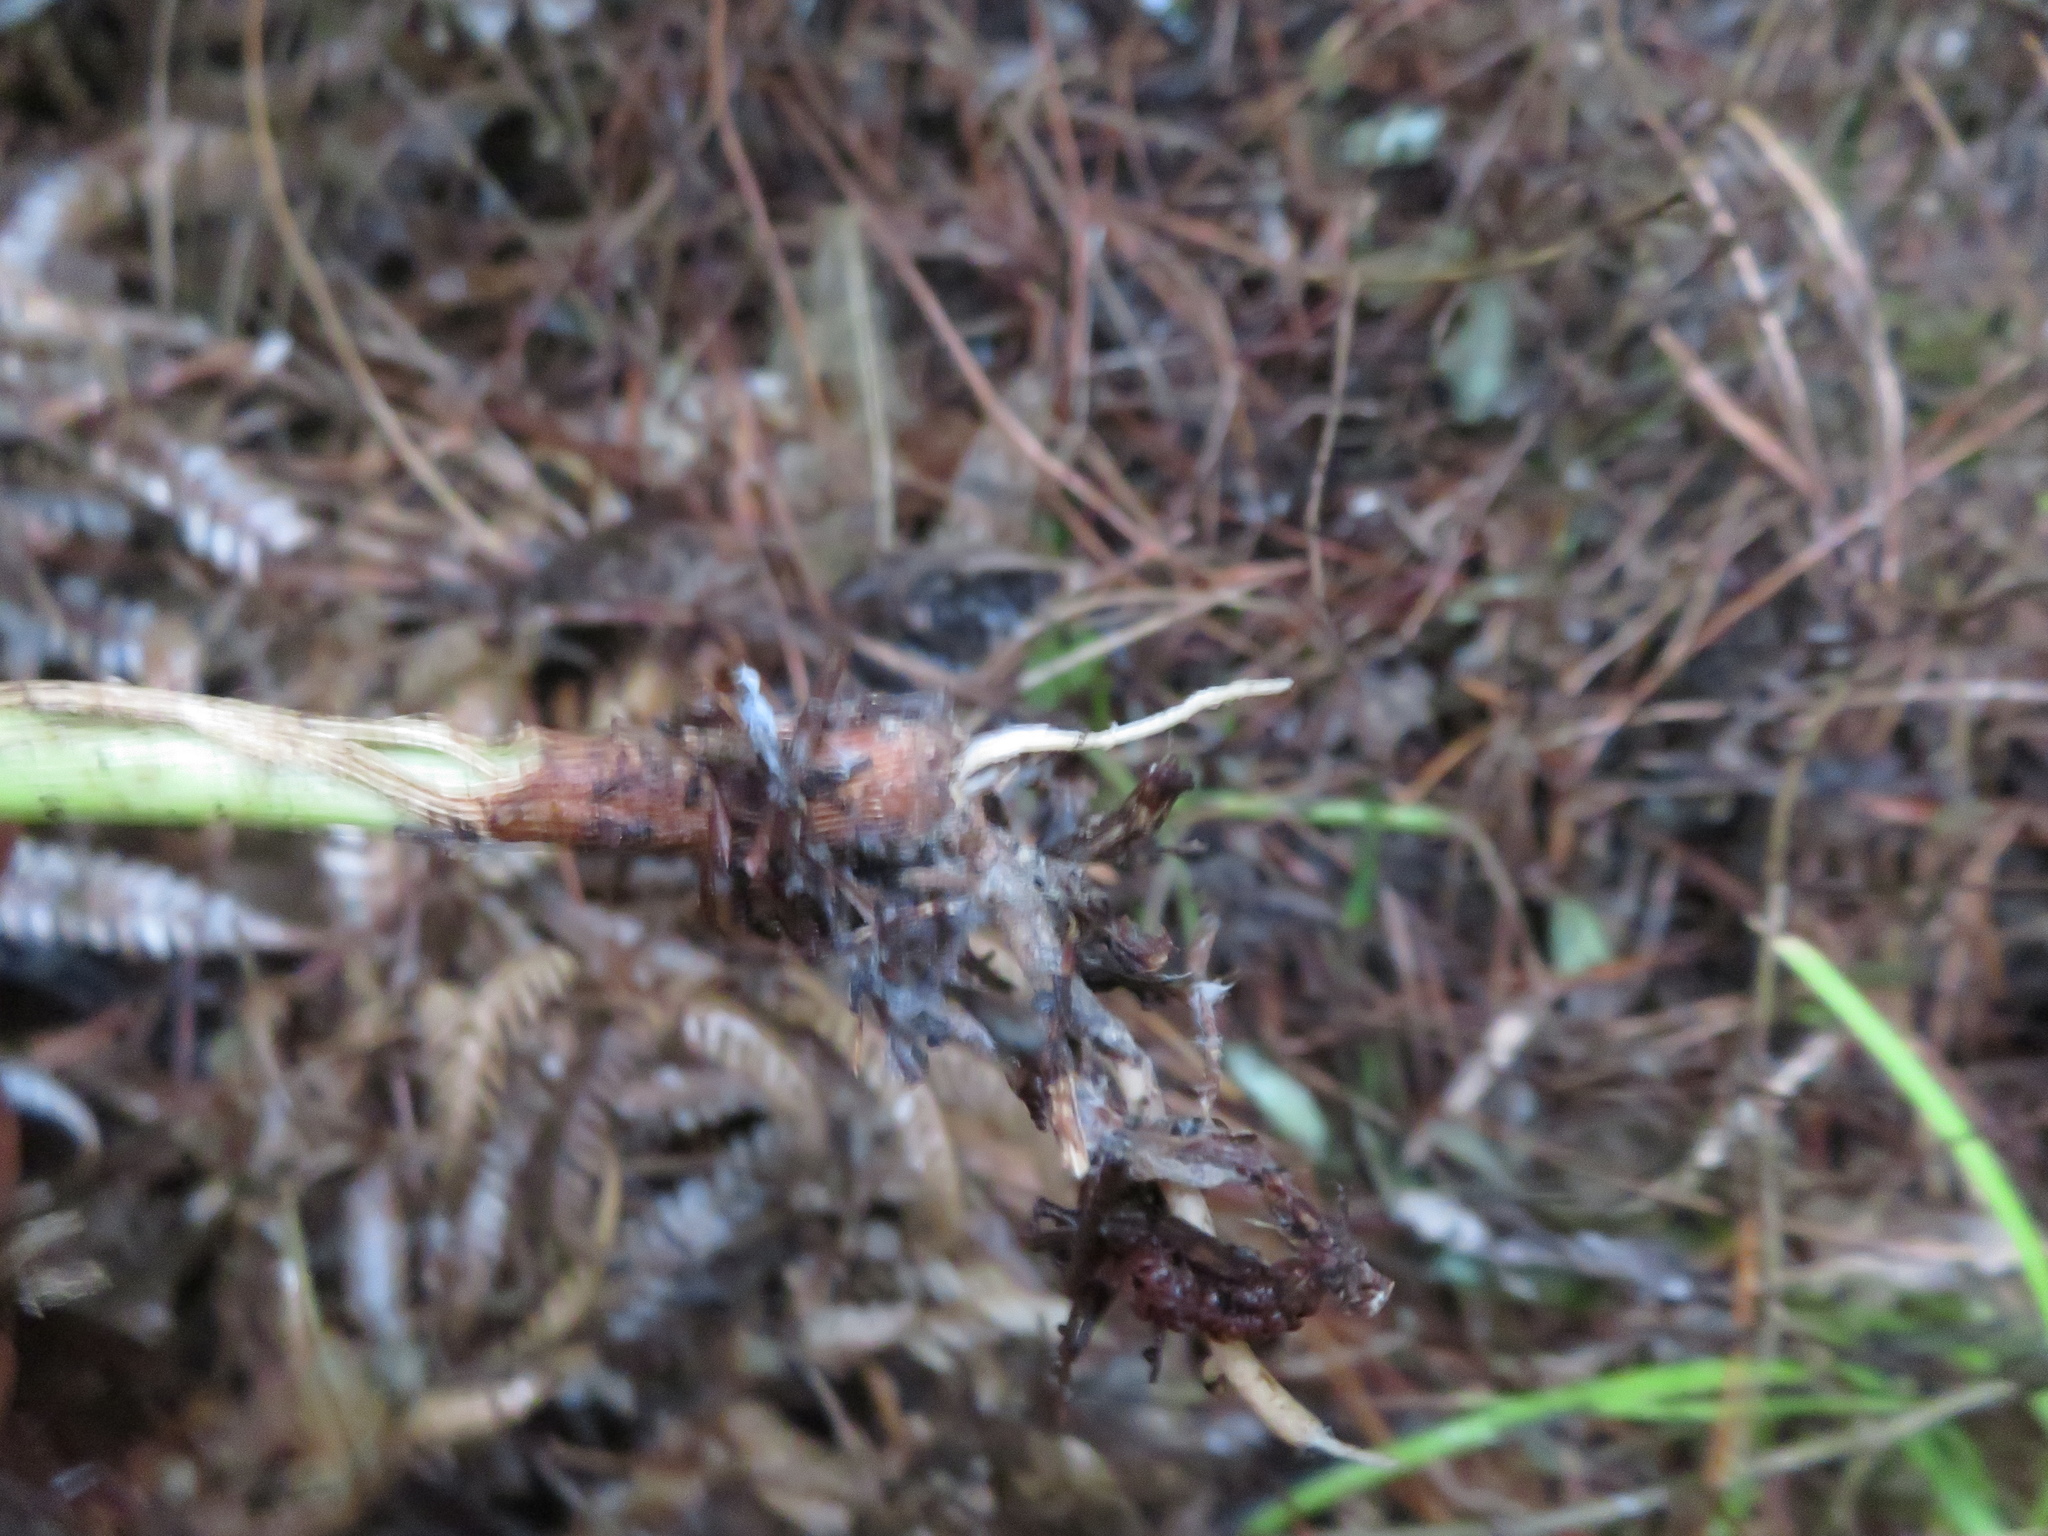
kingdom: Plantae
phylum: Tracheophyta
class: Liliopsida
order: Arecales
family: Arecaceae
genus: Archontophoenix
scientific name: Archontophoenix cunninghamiana
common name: Piccabeen bangalow palm
